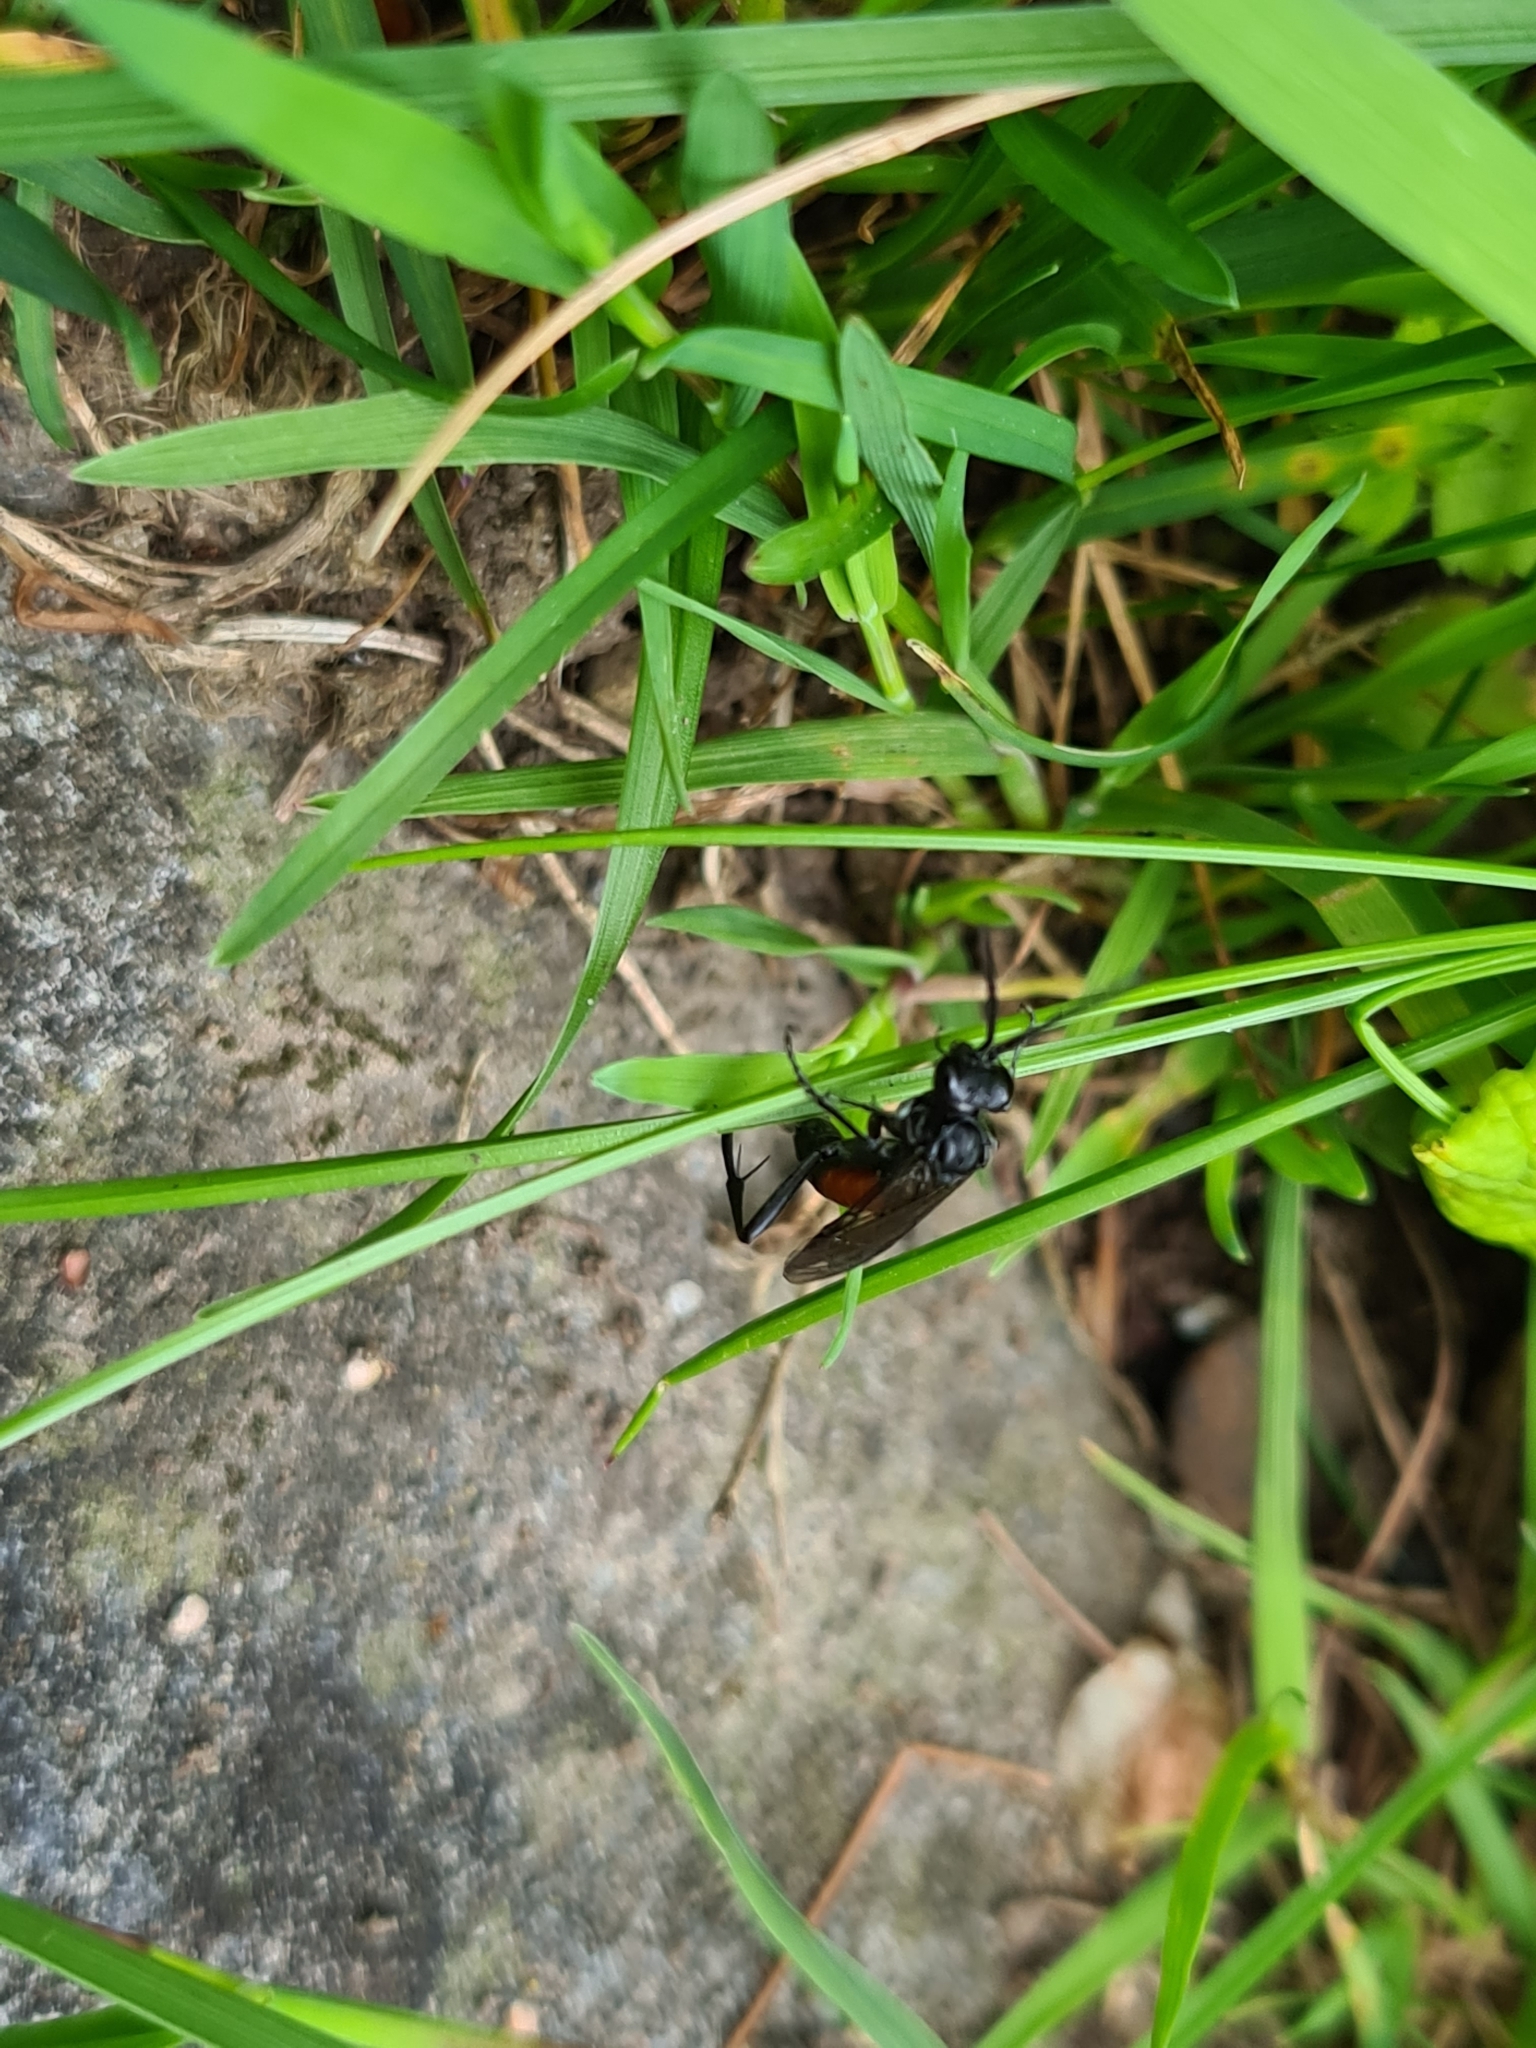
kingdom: Animalia
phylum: Arthropoda
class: Insecta
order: Hymenoptera
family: Tenthredinidae
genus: Macrophya
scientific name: Macrophya annulata
